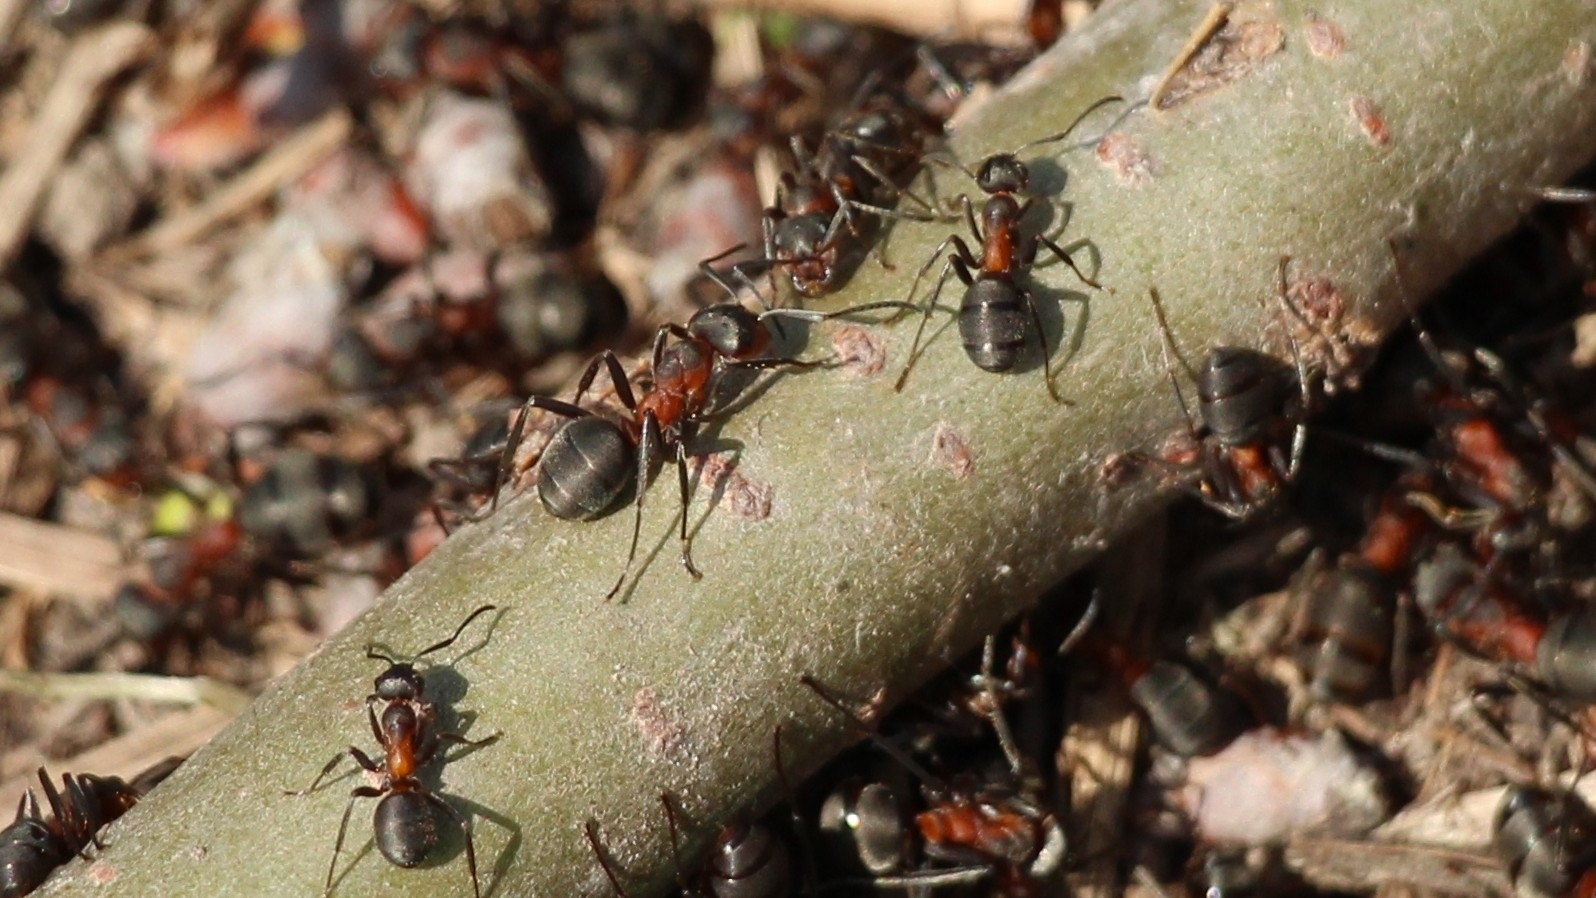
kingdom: Animalia
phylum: Arthropoda
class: Insecta
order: Hymenoptera
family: Formicidae
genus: Formica
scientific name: Formica pratensis
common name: European red wood ant
